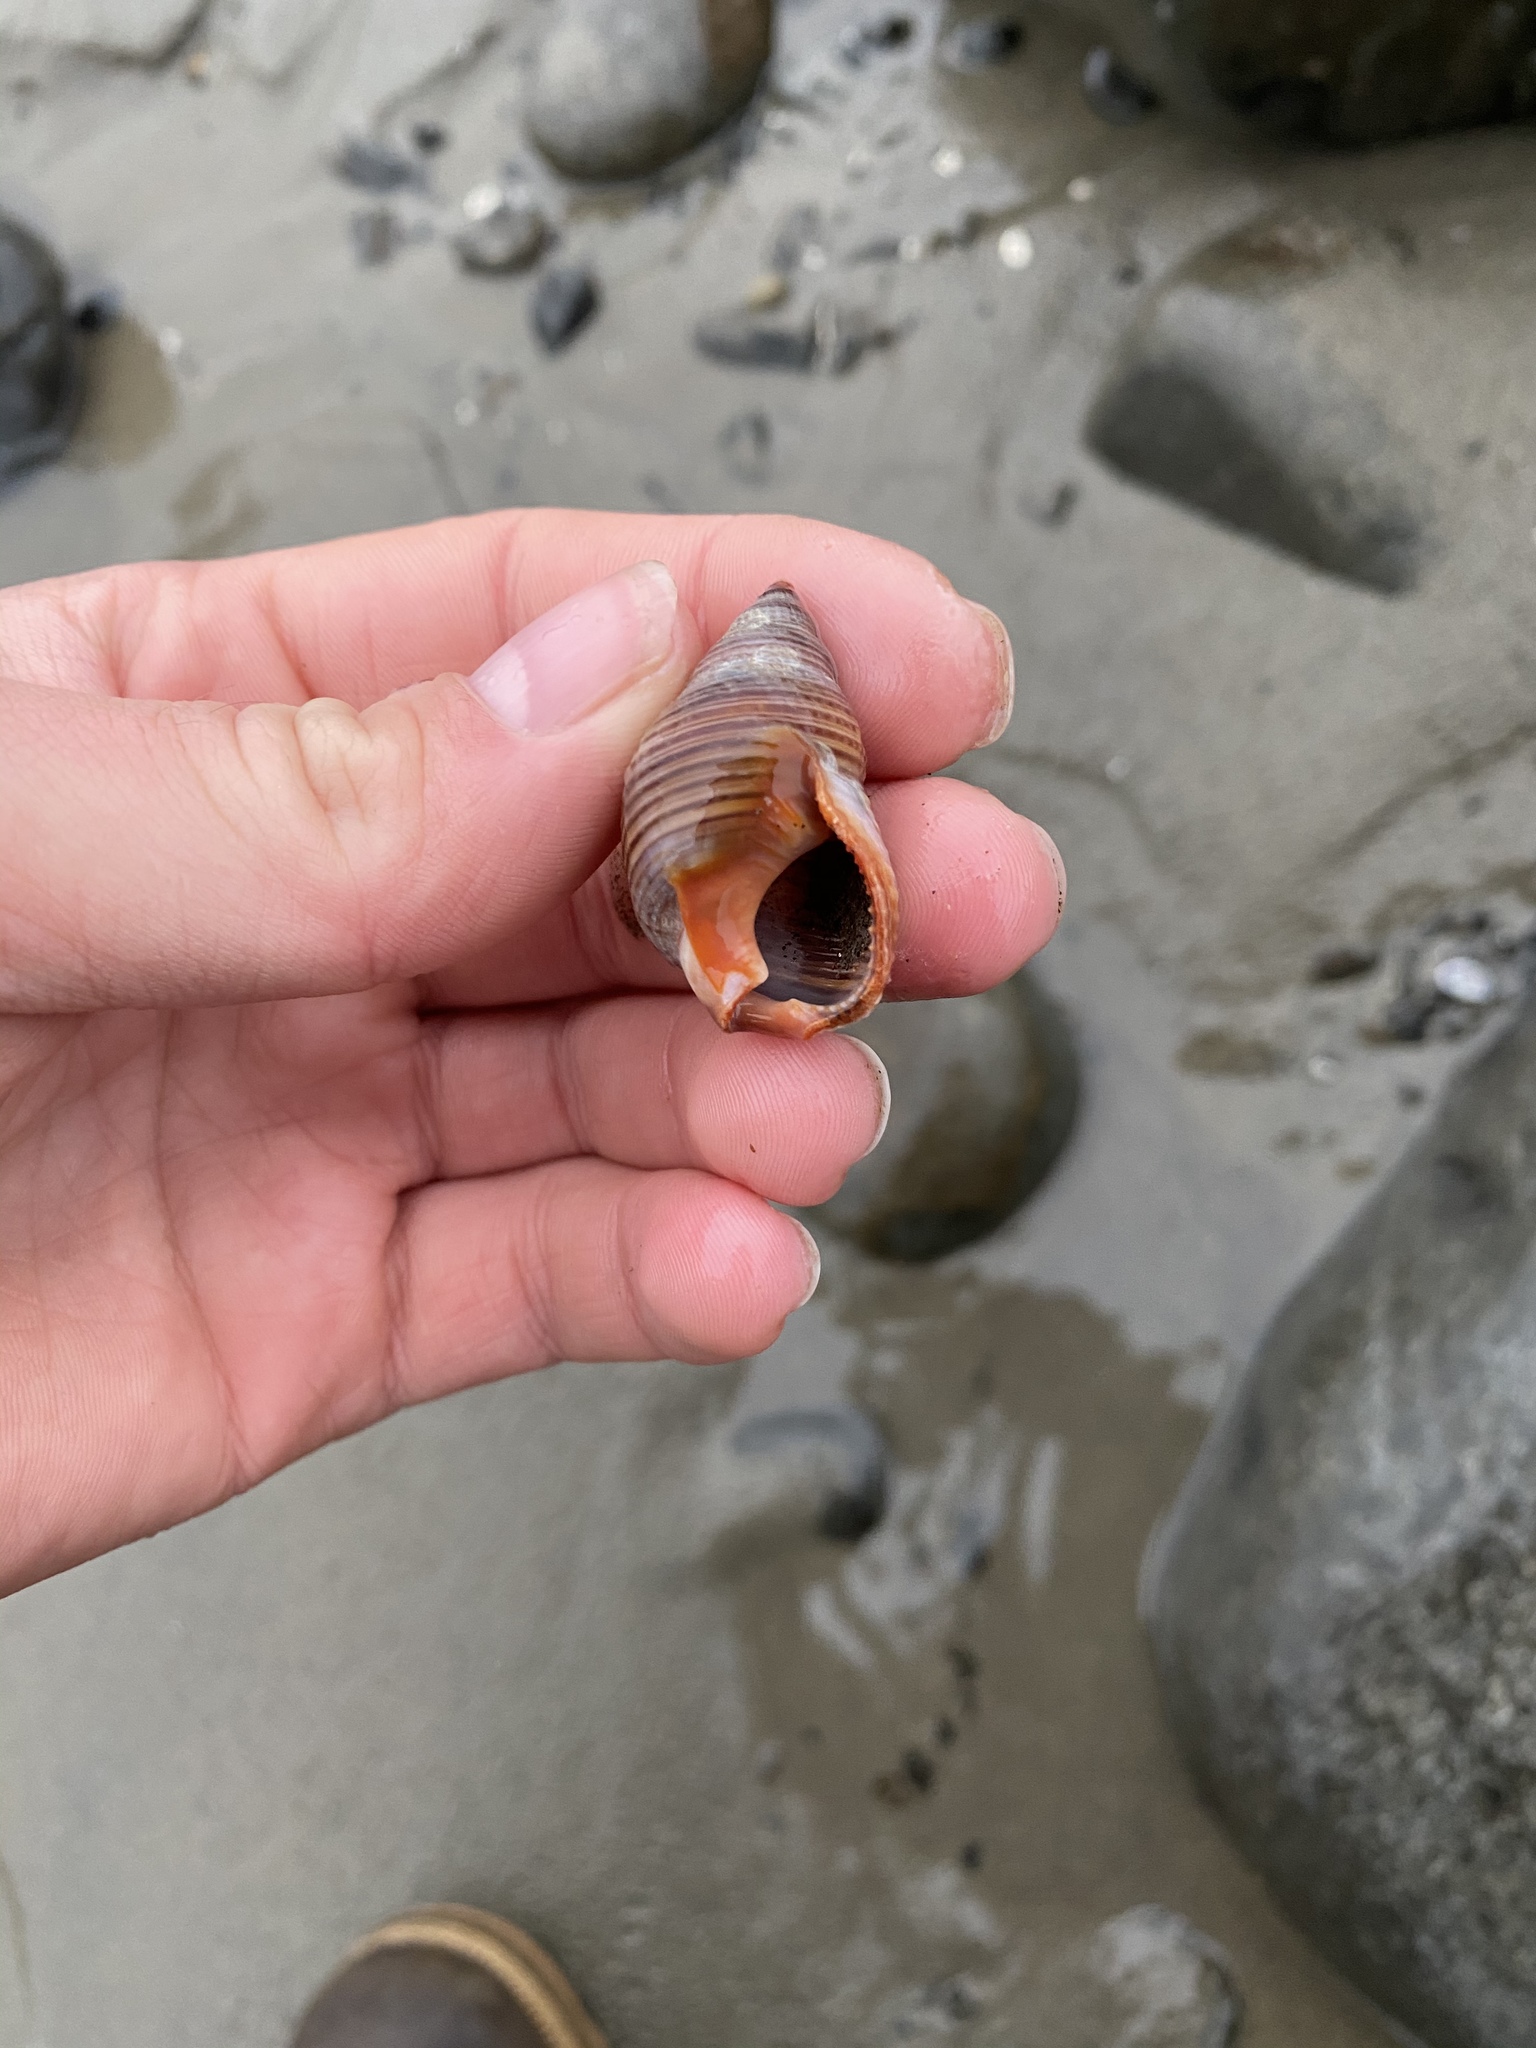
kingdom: Animalia
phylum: Mollusca
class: Gastropoda
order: Neogastropoda
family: Nassariidae
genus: Caesia
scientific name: Caesia fossata
